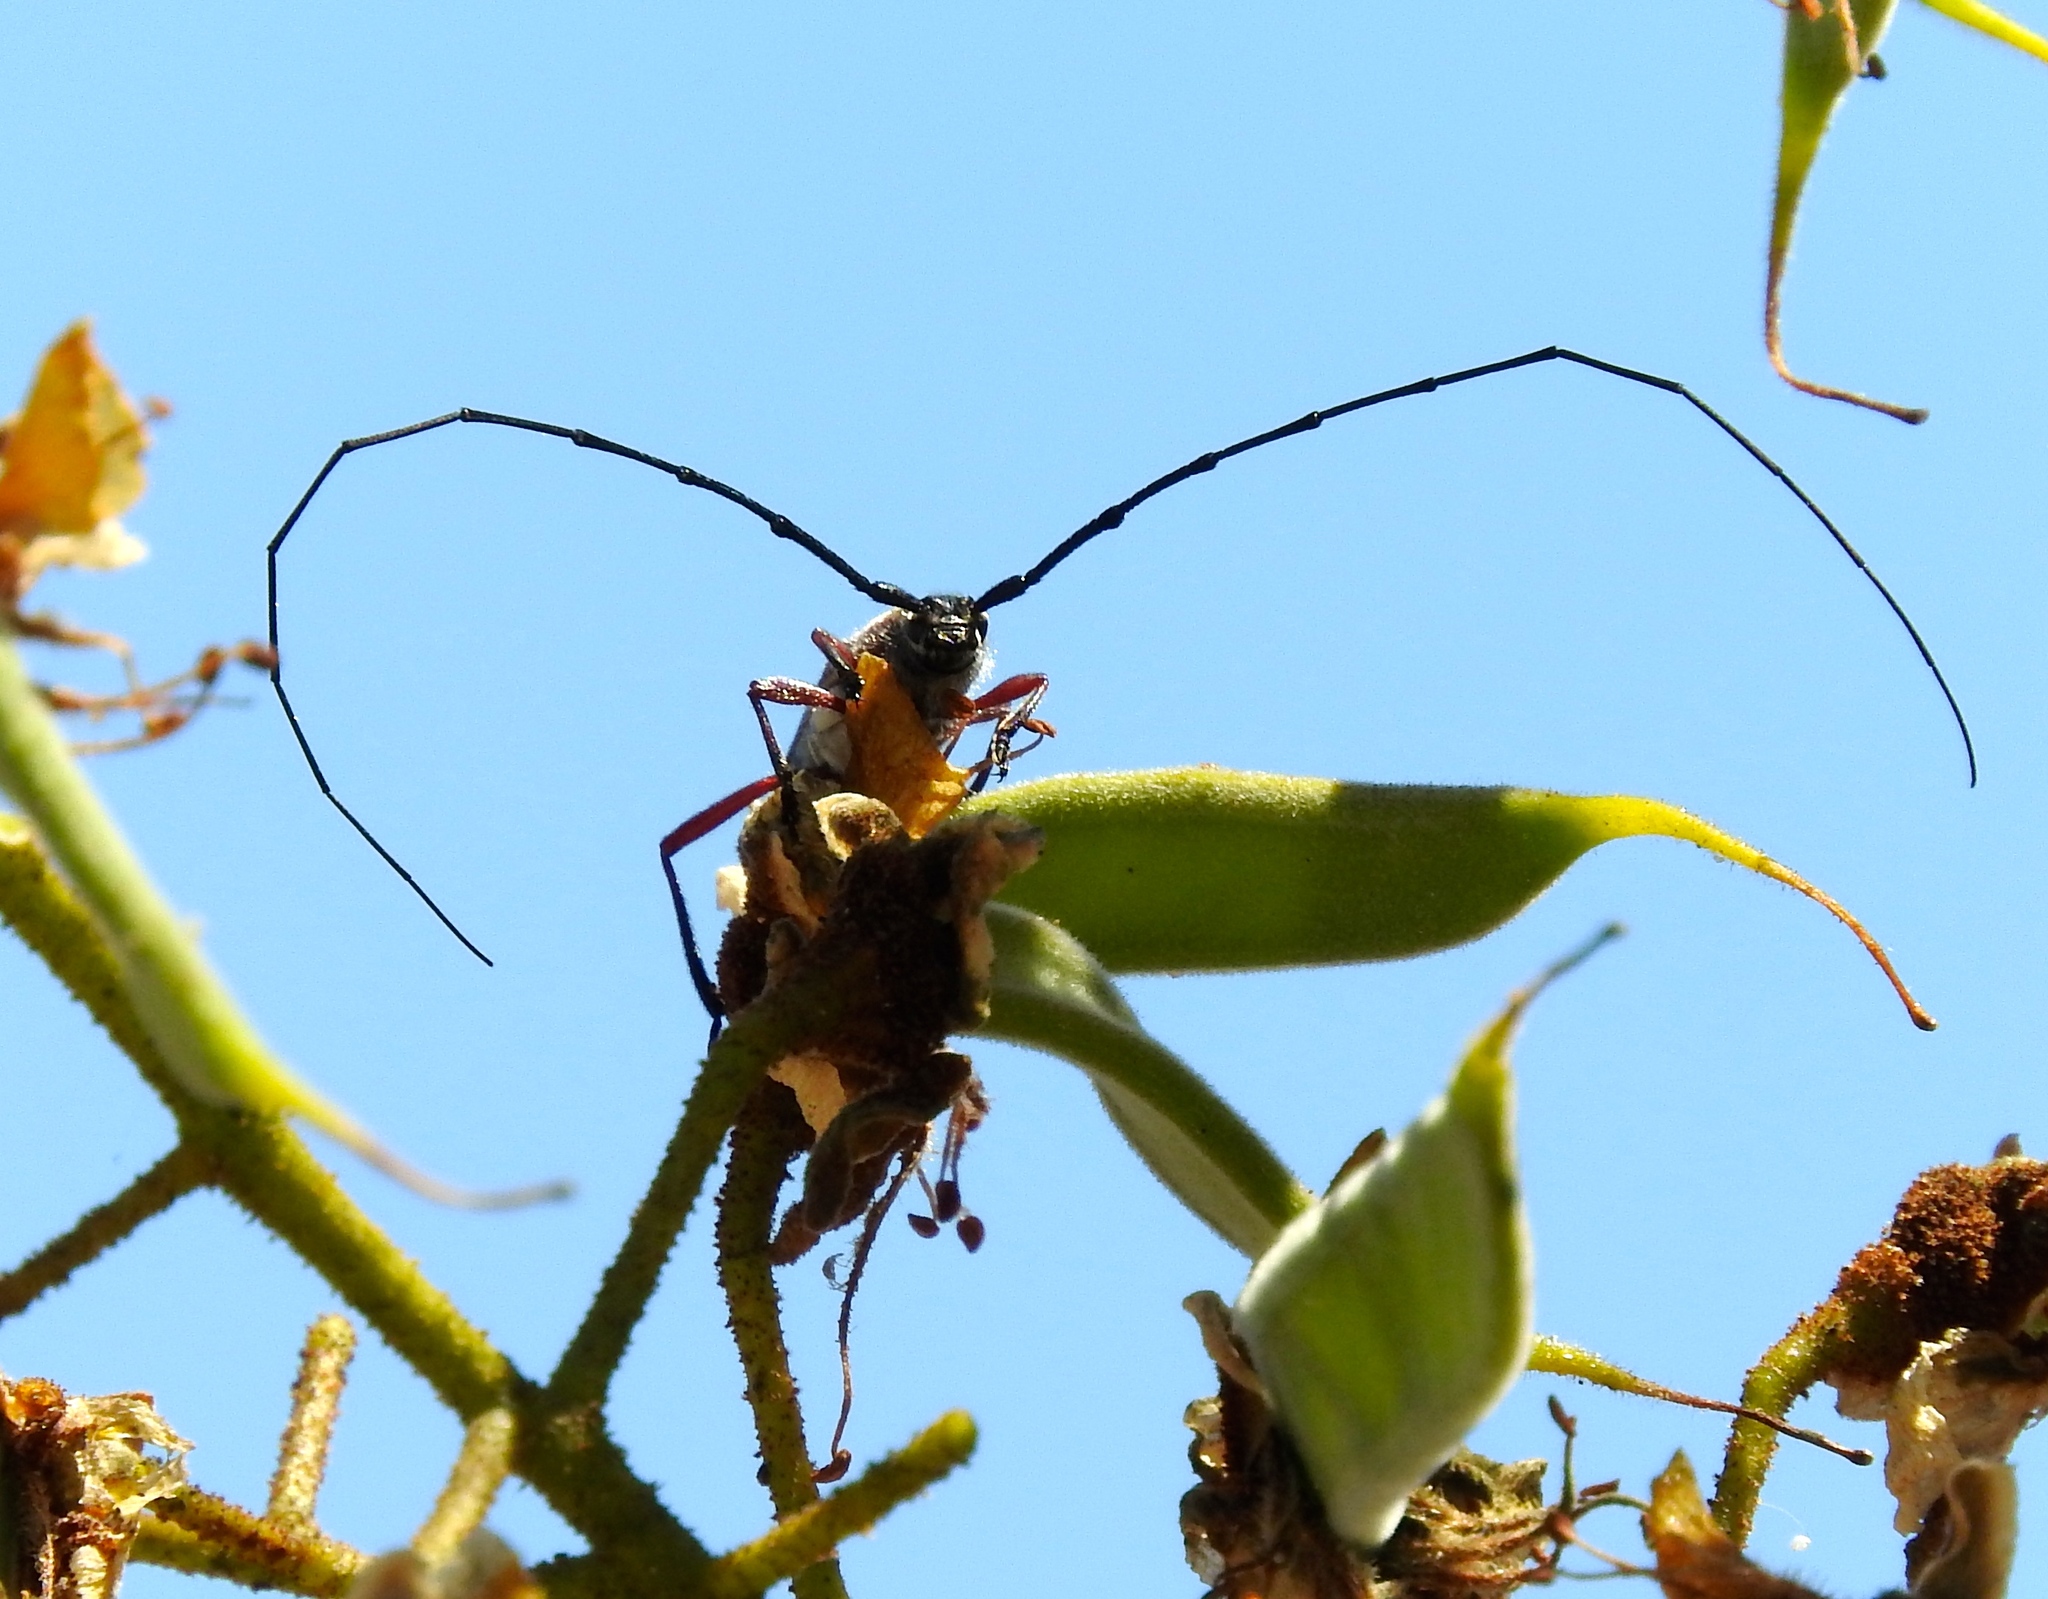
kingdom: Animalia
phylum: Arthropoda
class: Insecta
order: Coleoptera
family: Cerambycidae
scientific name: Cerambycidae
